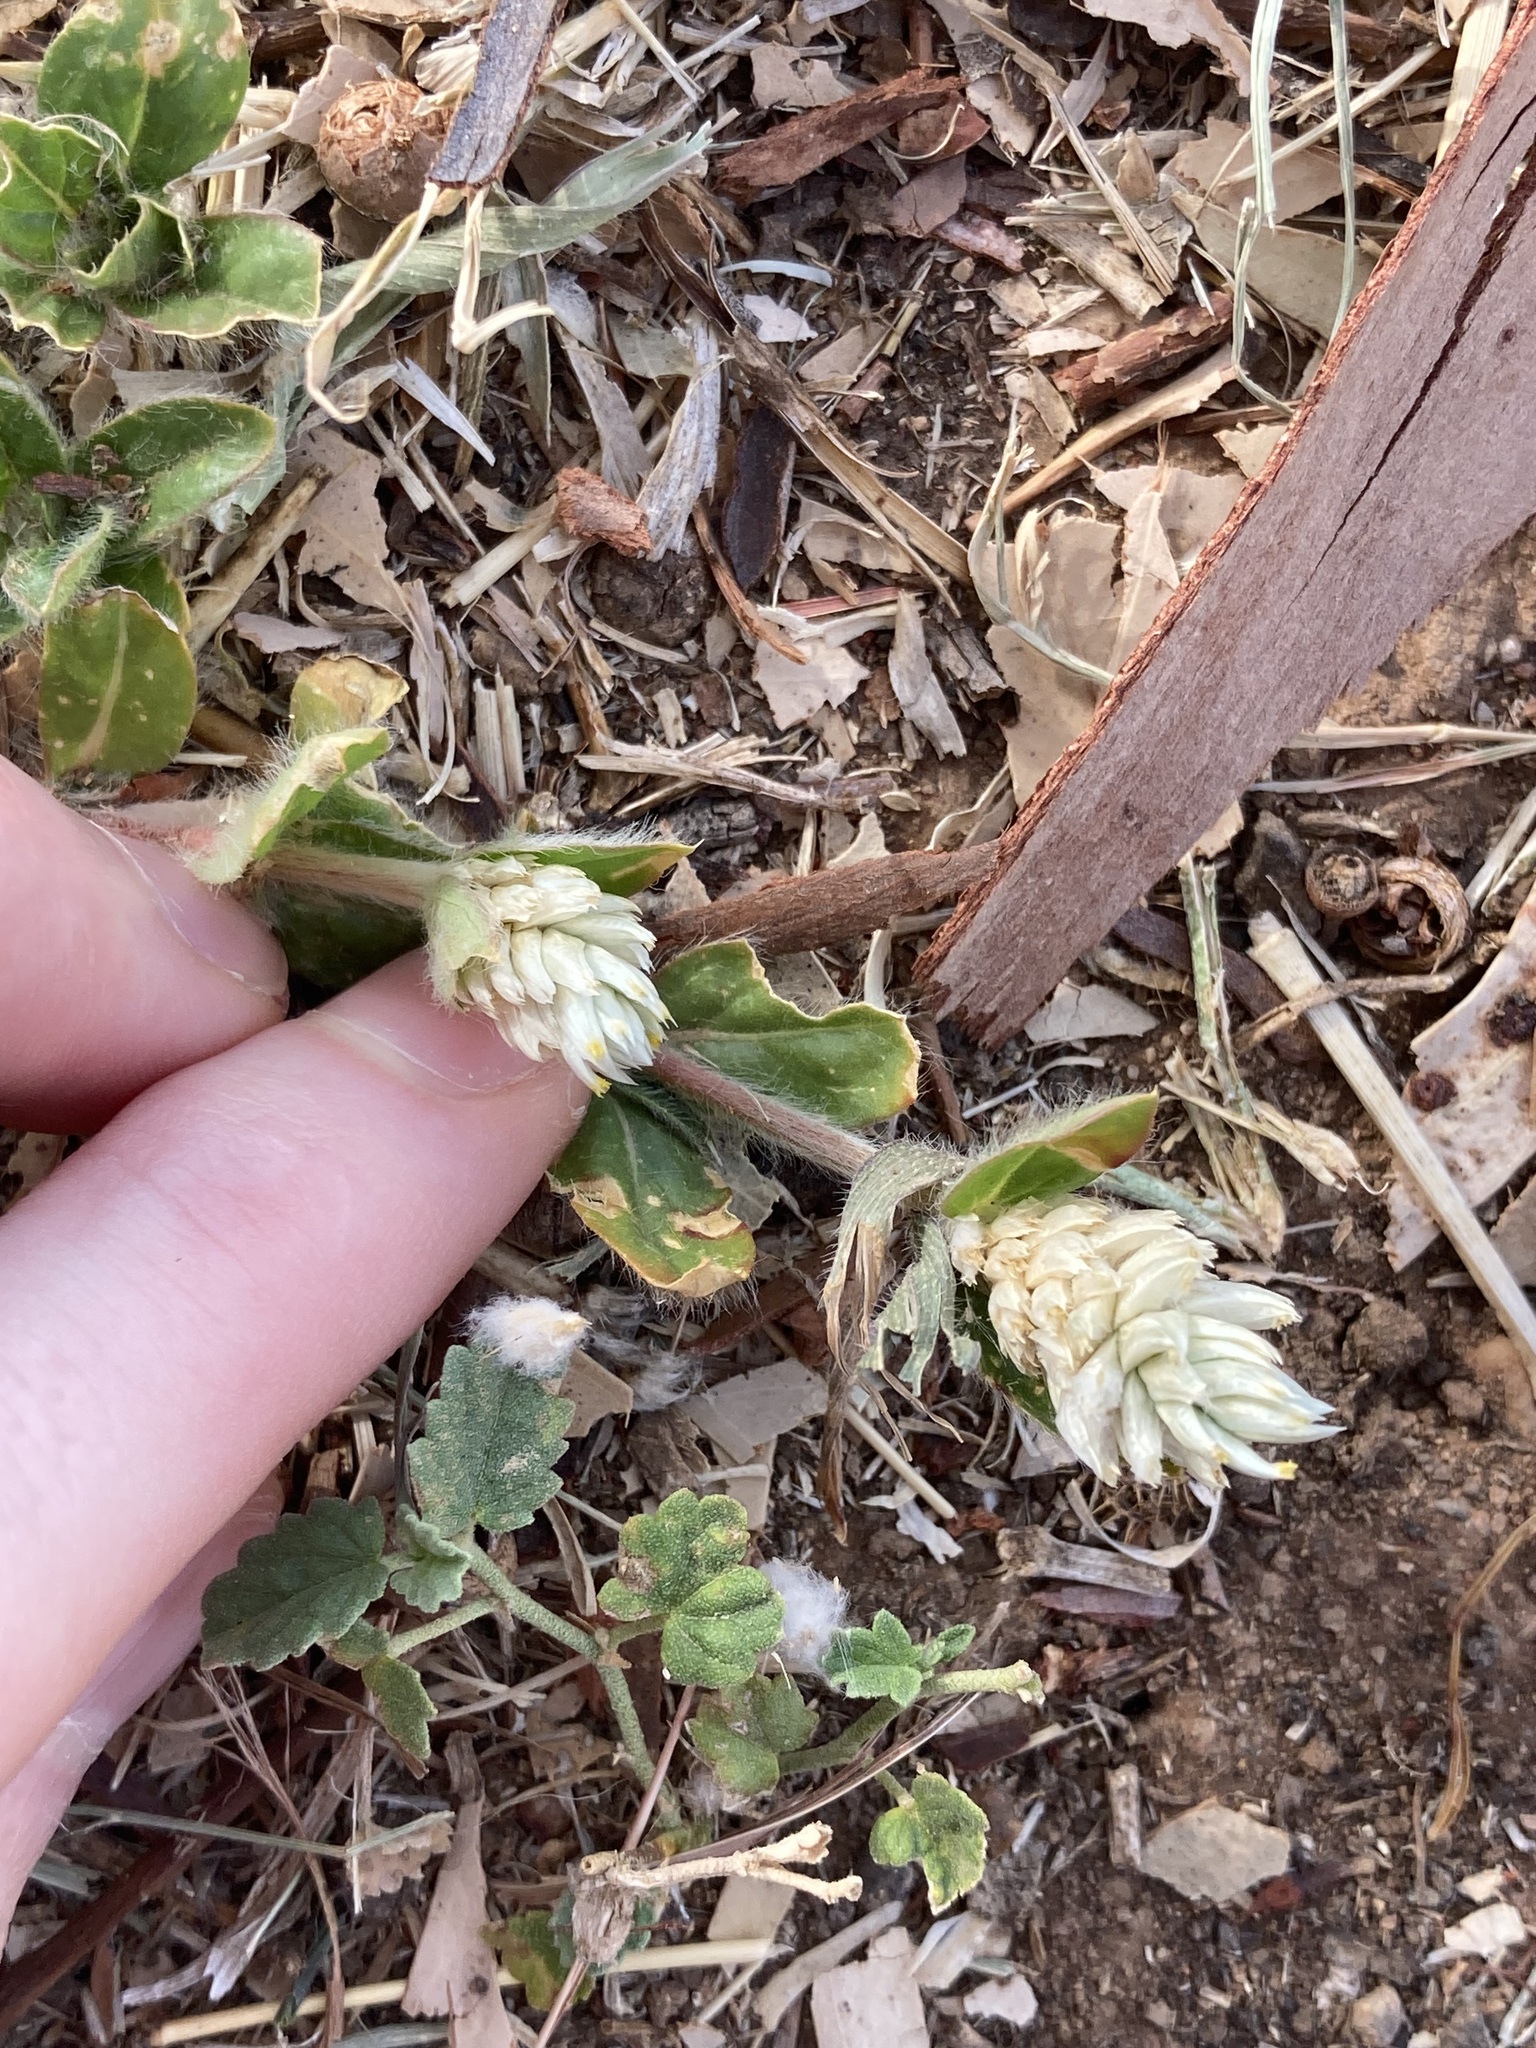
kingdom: Plantae
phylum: Tracheophyta
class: Magnoliopsida
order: Caryophyllales
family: Amaranthaceae
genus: Gomphrena
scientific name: Gomphrena celosioides
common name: Gomphrena-weed
